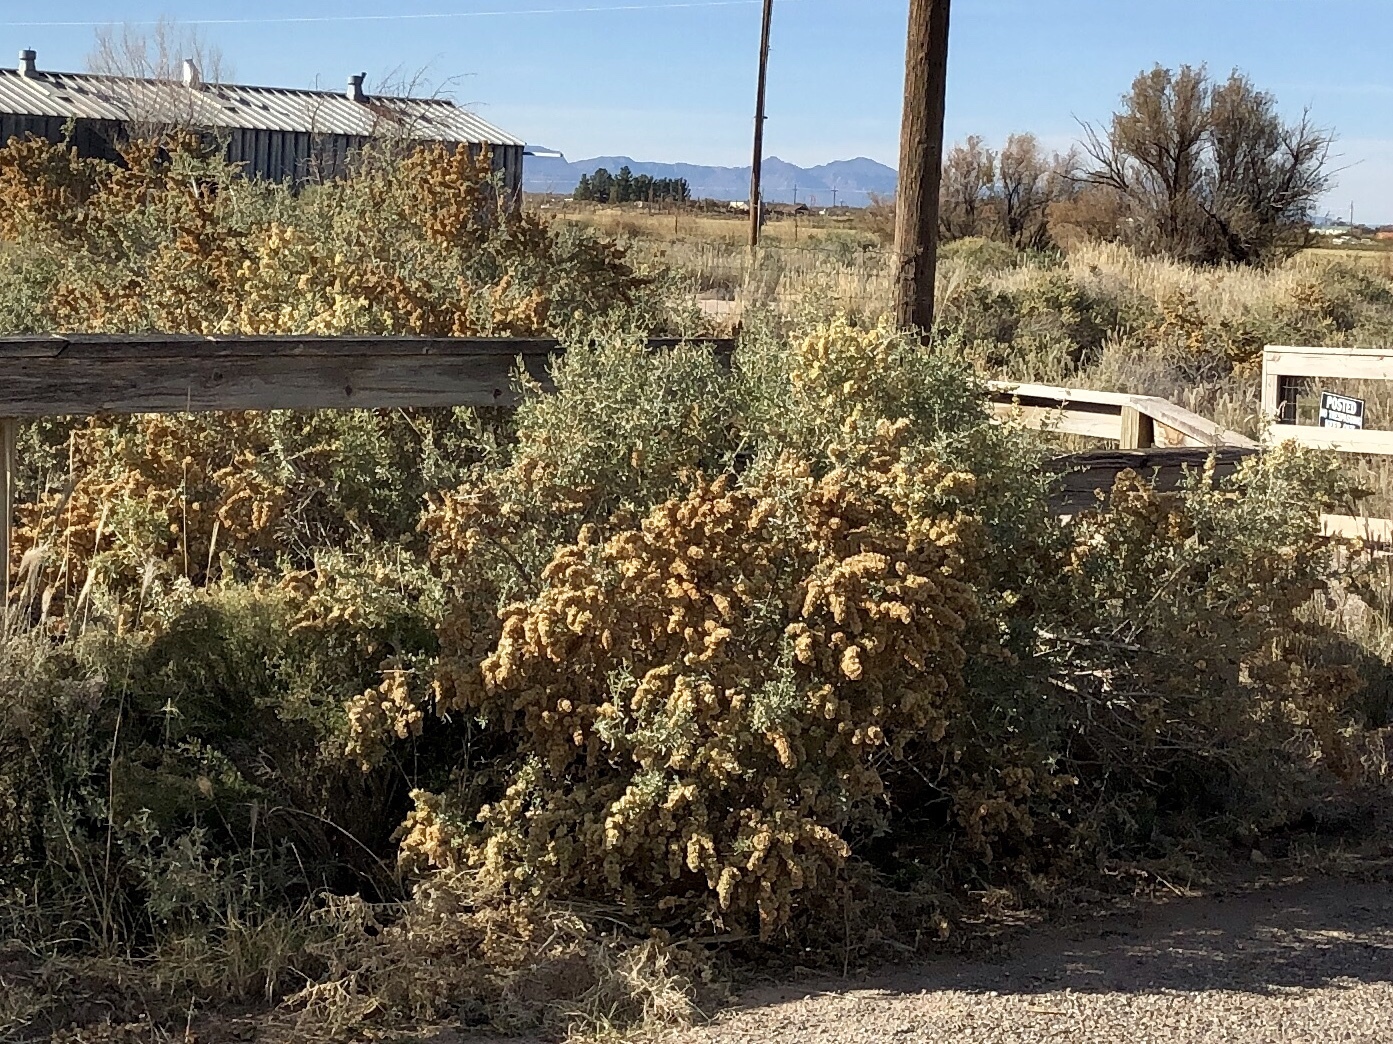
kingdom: Plantae
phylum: Tracheophyta
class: Magnoliopsida
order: Caryophyllales
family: Amaranthaceae
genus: Atriplex
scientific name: Atriplex canescens
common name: Four-wing saltbush
